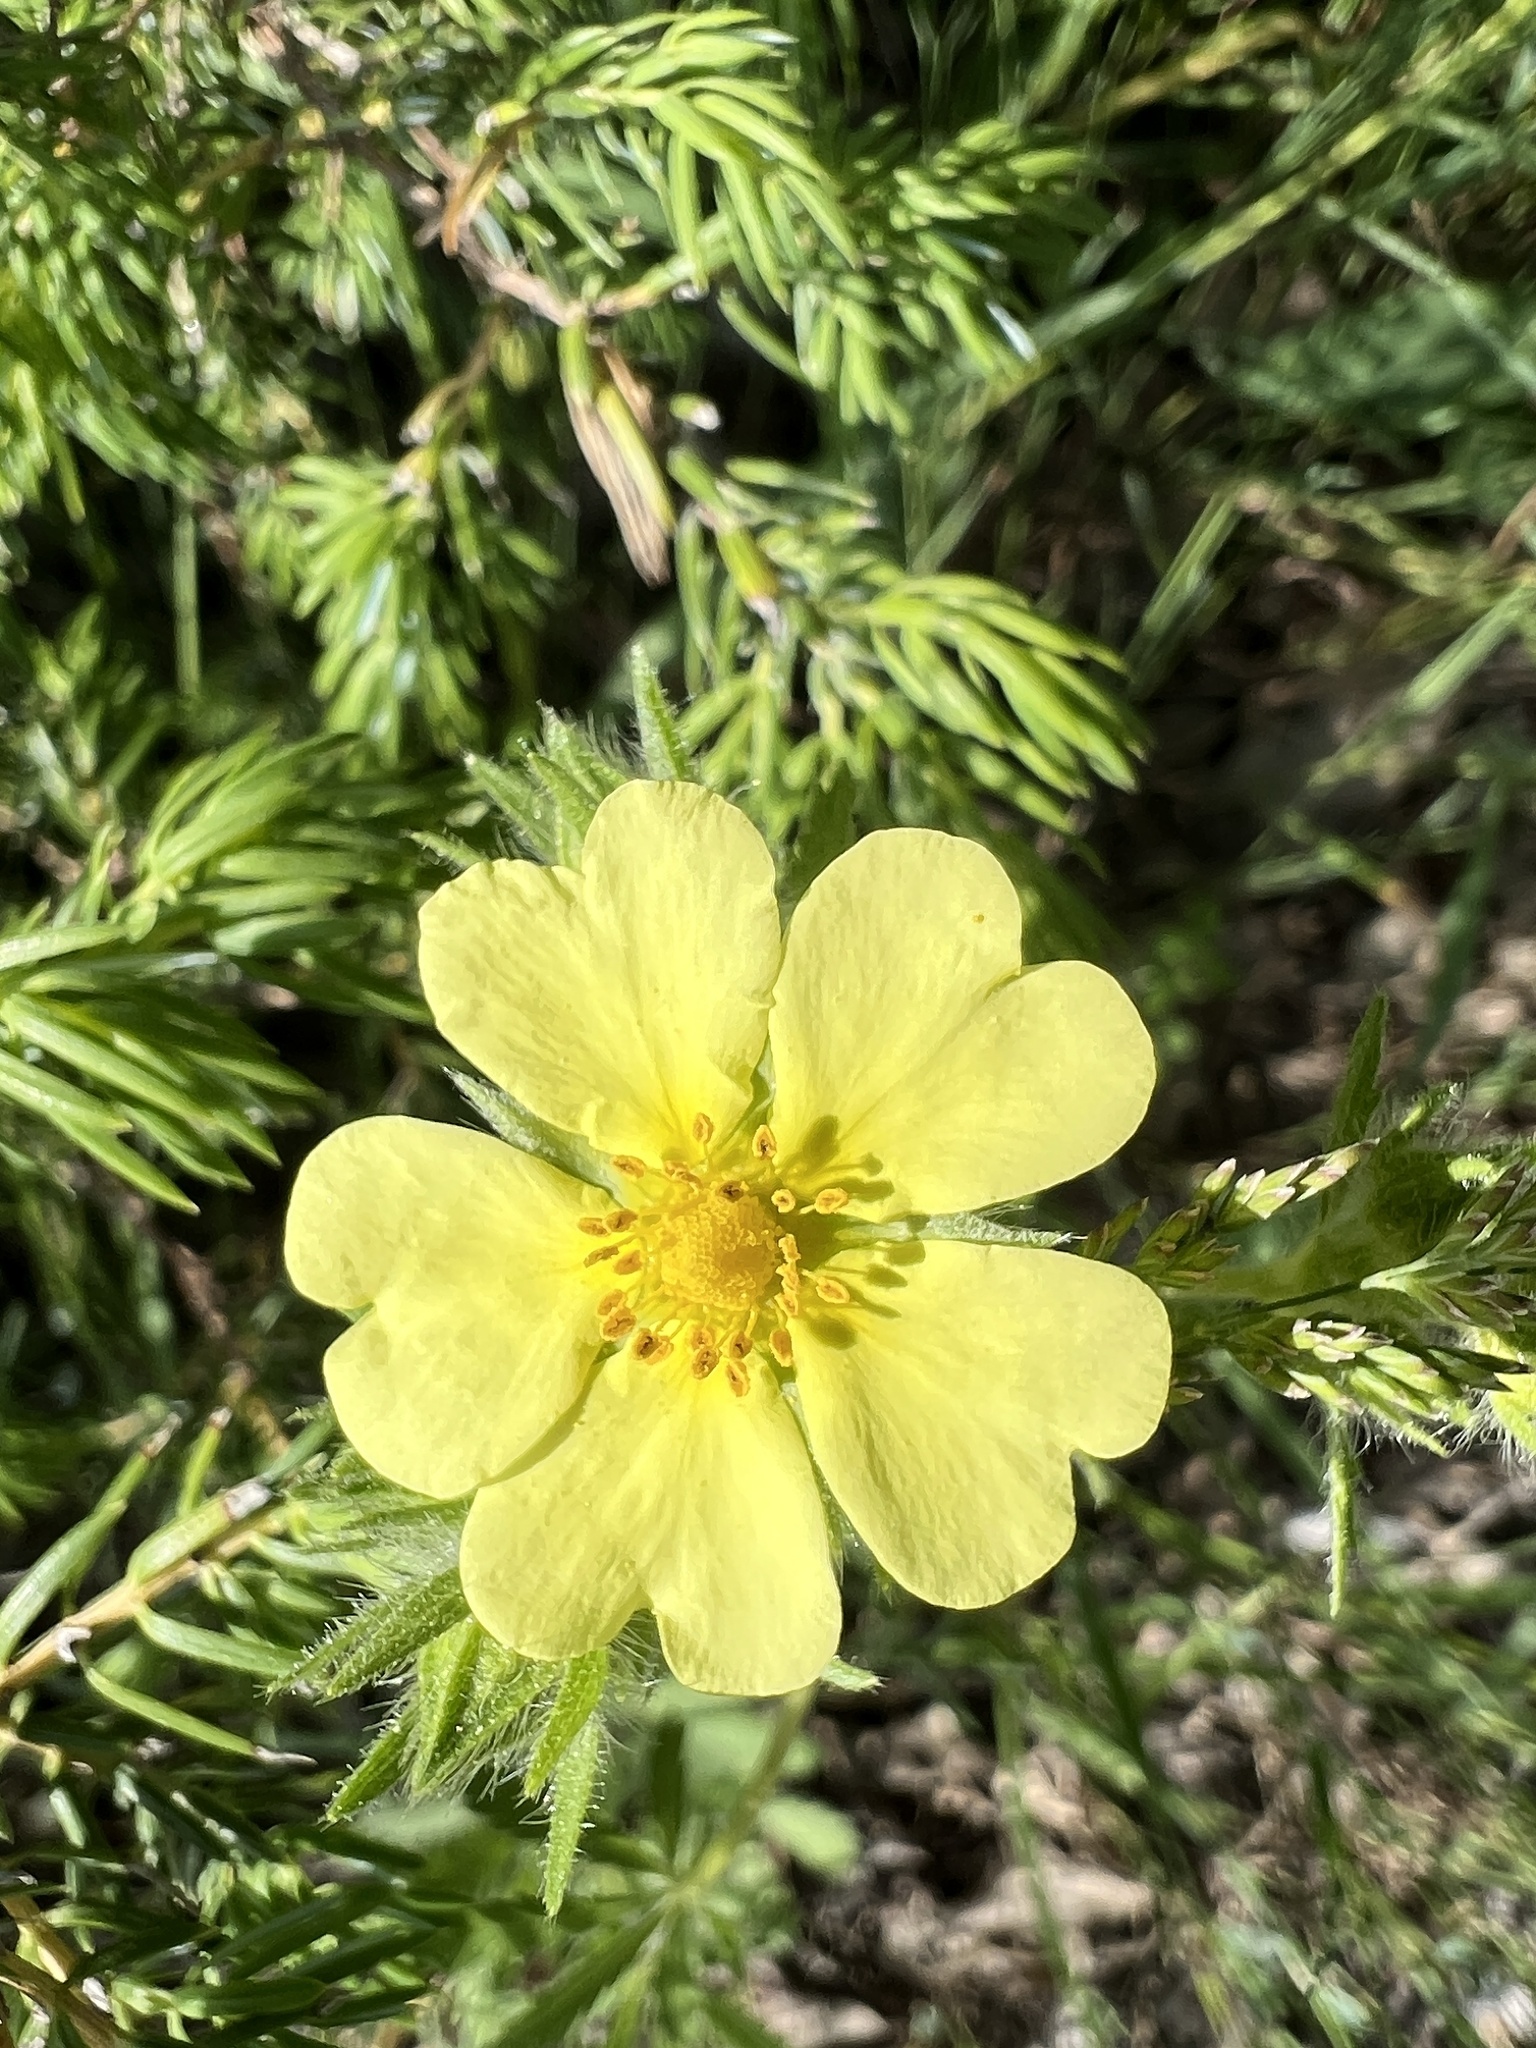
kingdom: Plantae
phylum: Tracheophyta
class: Magnoliopsida
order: Rosales
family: Rosaceae
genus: Potentilla
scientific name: Potentilla recta
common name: Sulphur cinquefoil
